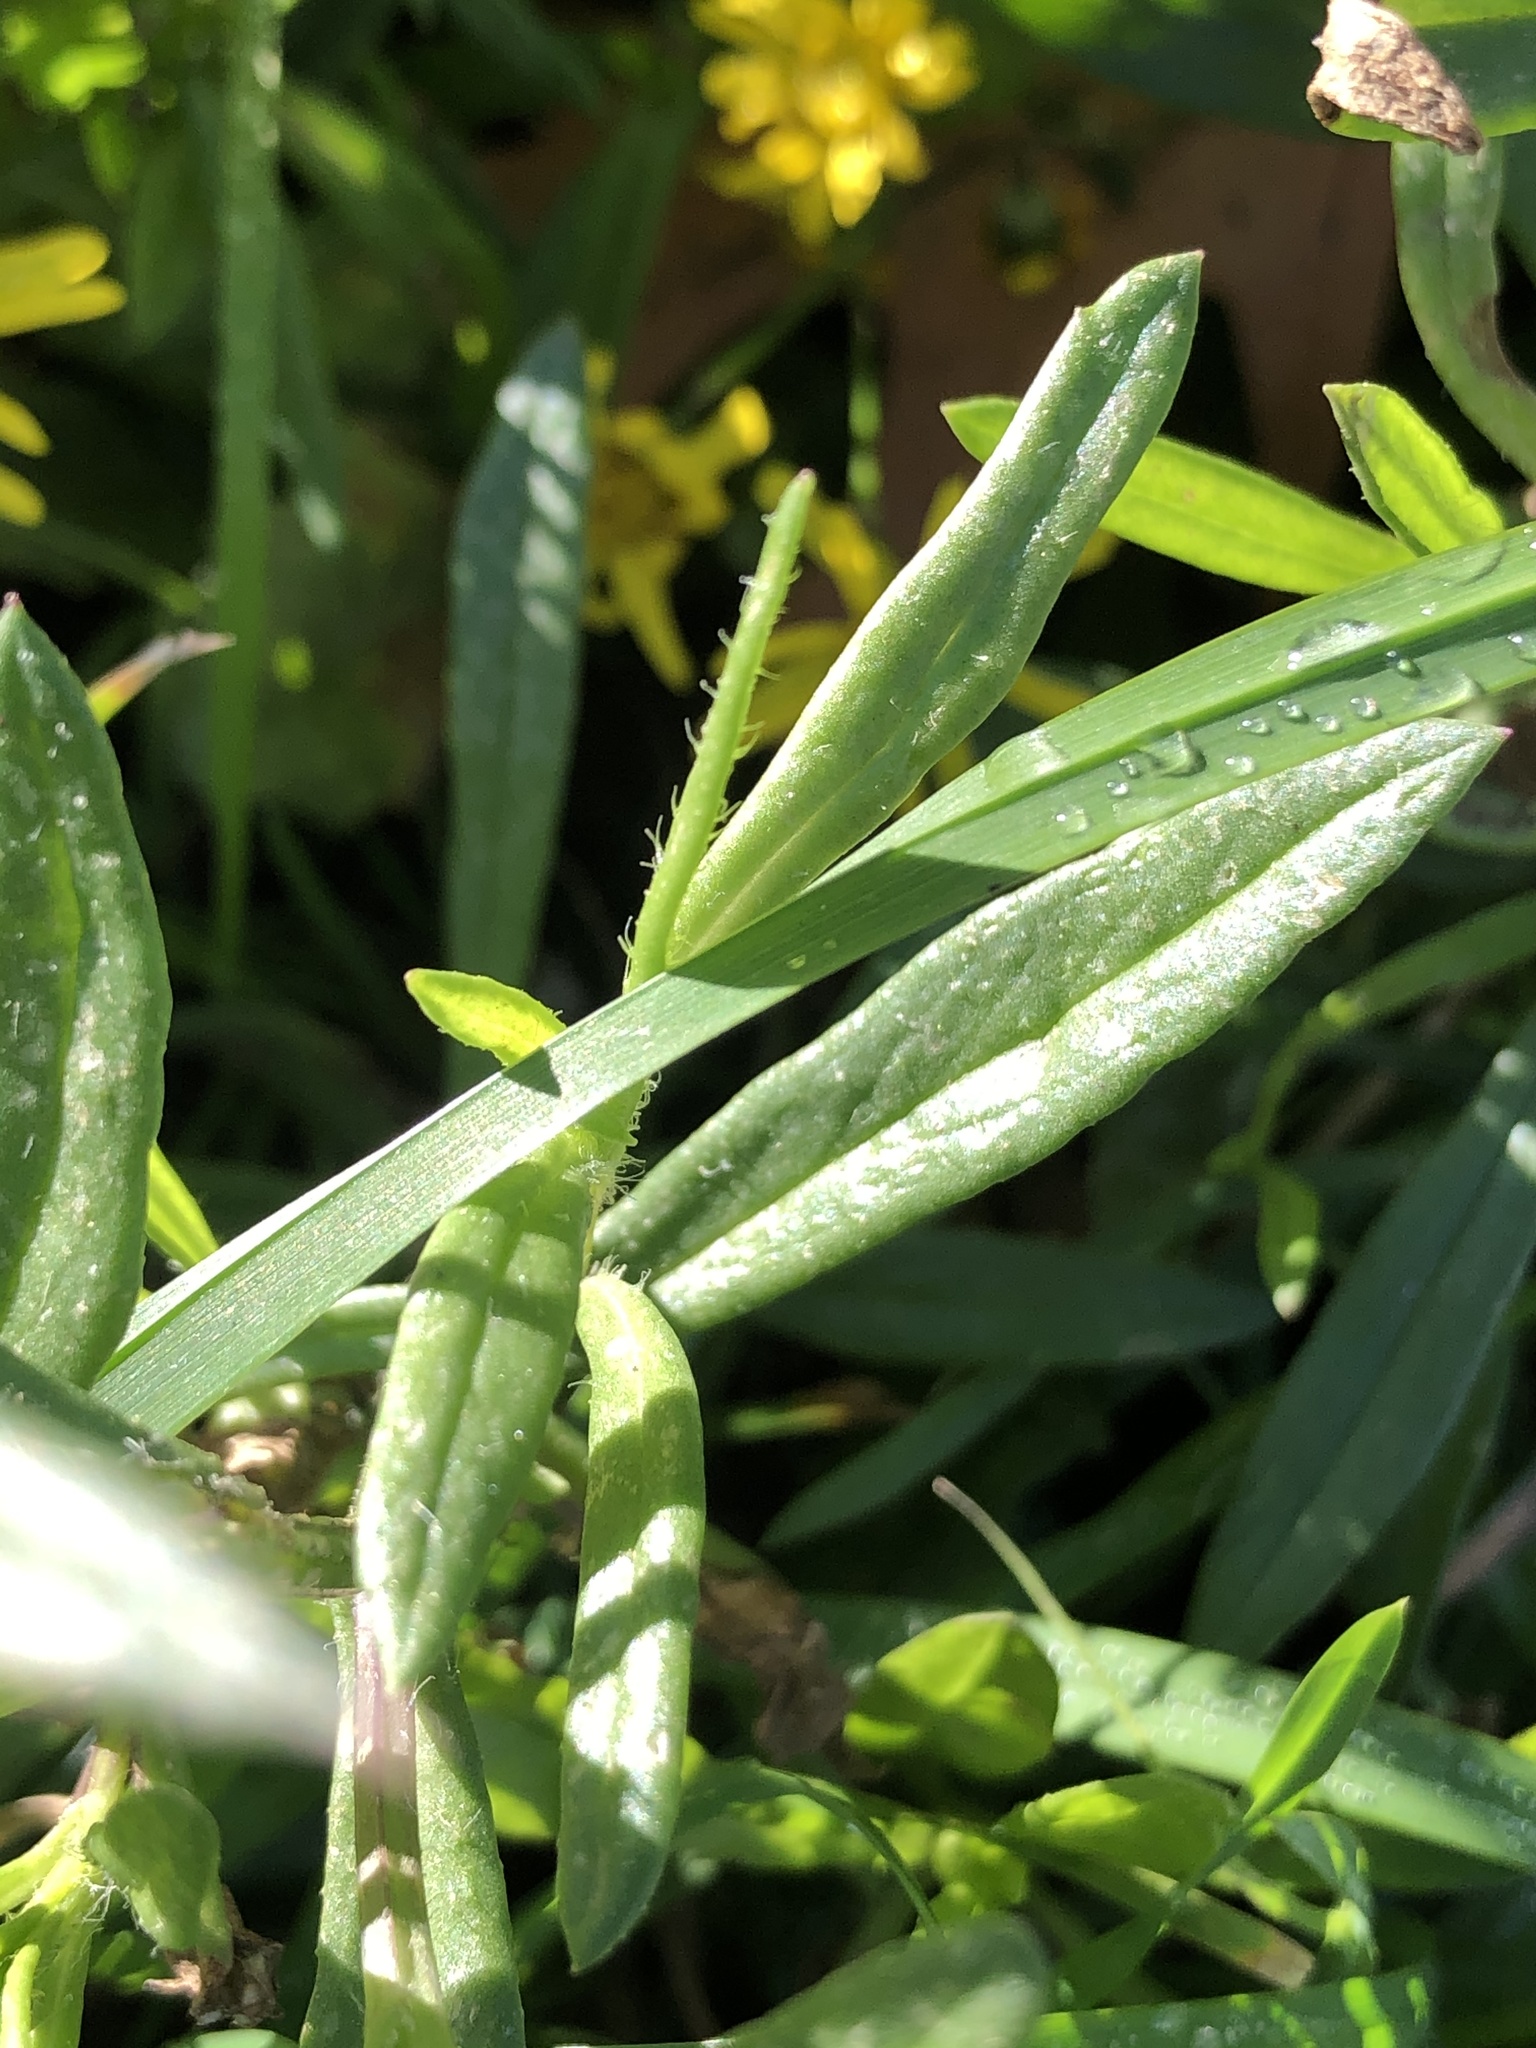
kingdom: Plantae
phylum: Tracheophyta
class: Magnoliopsida
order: Asterales
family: Asteraceae
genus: Senecio
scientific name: Senecio skirrhodon
